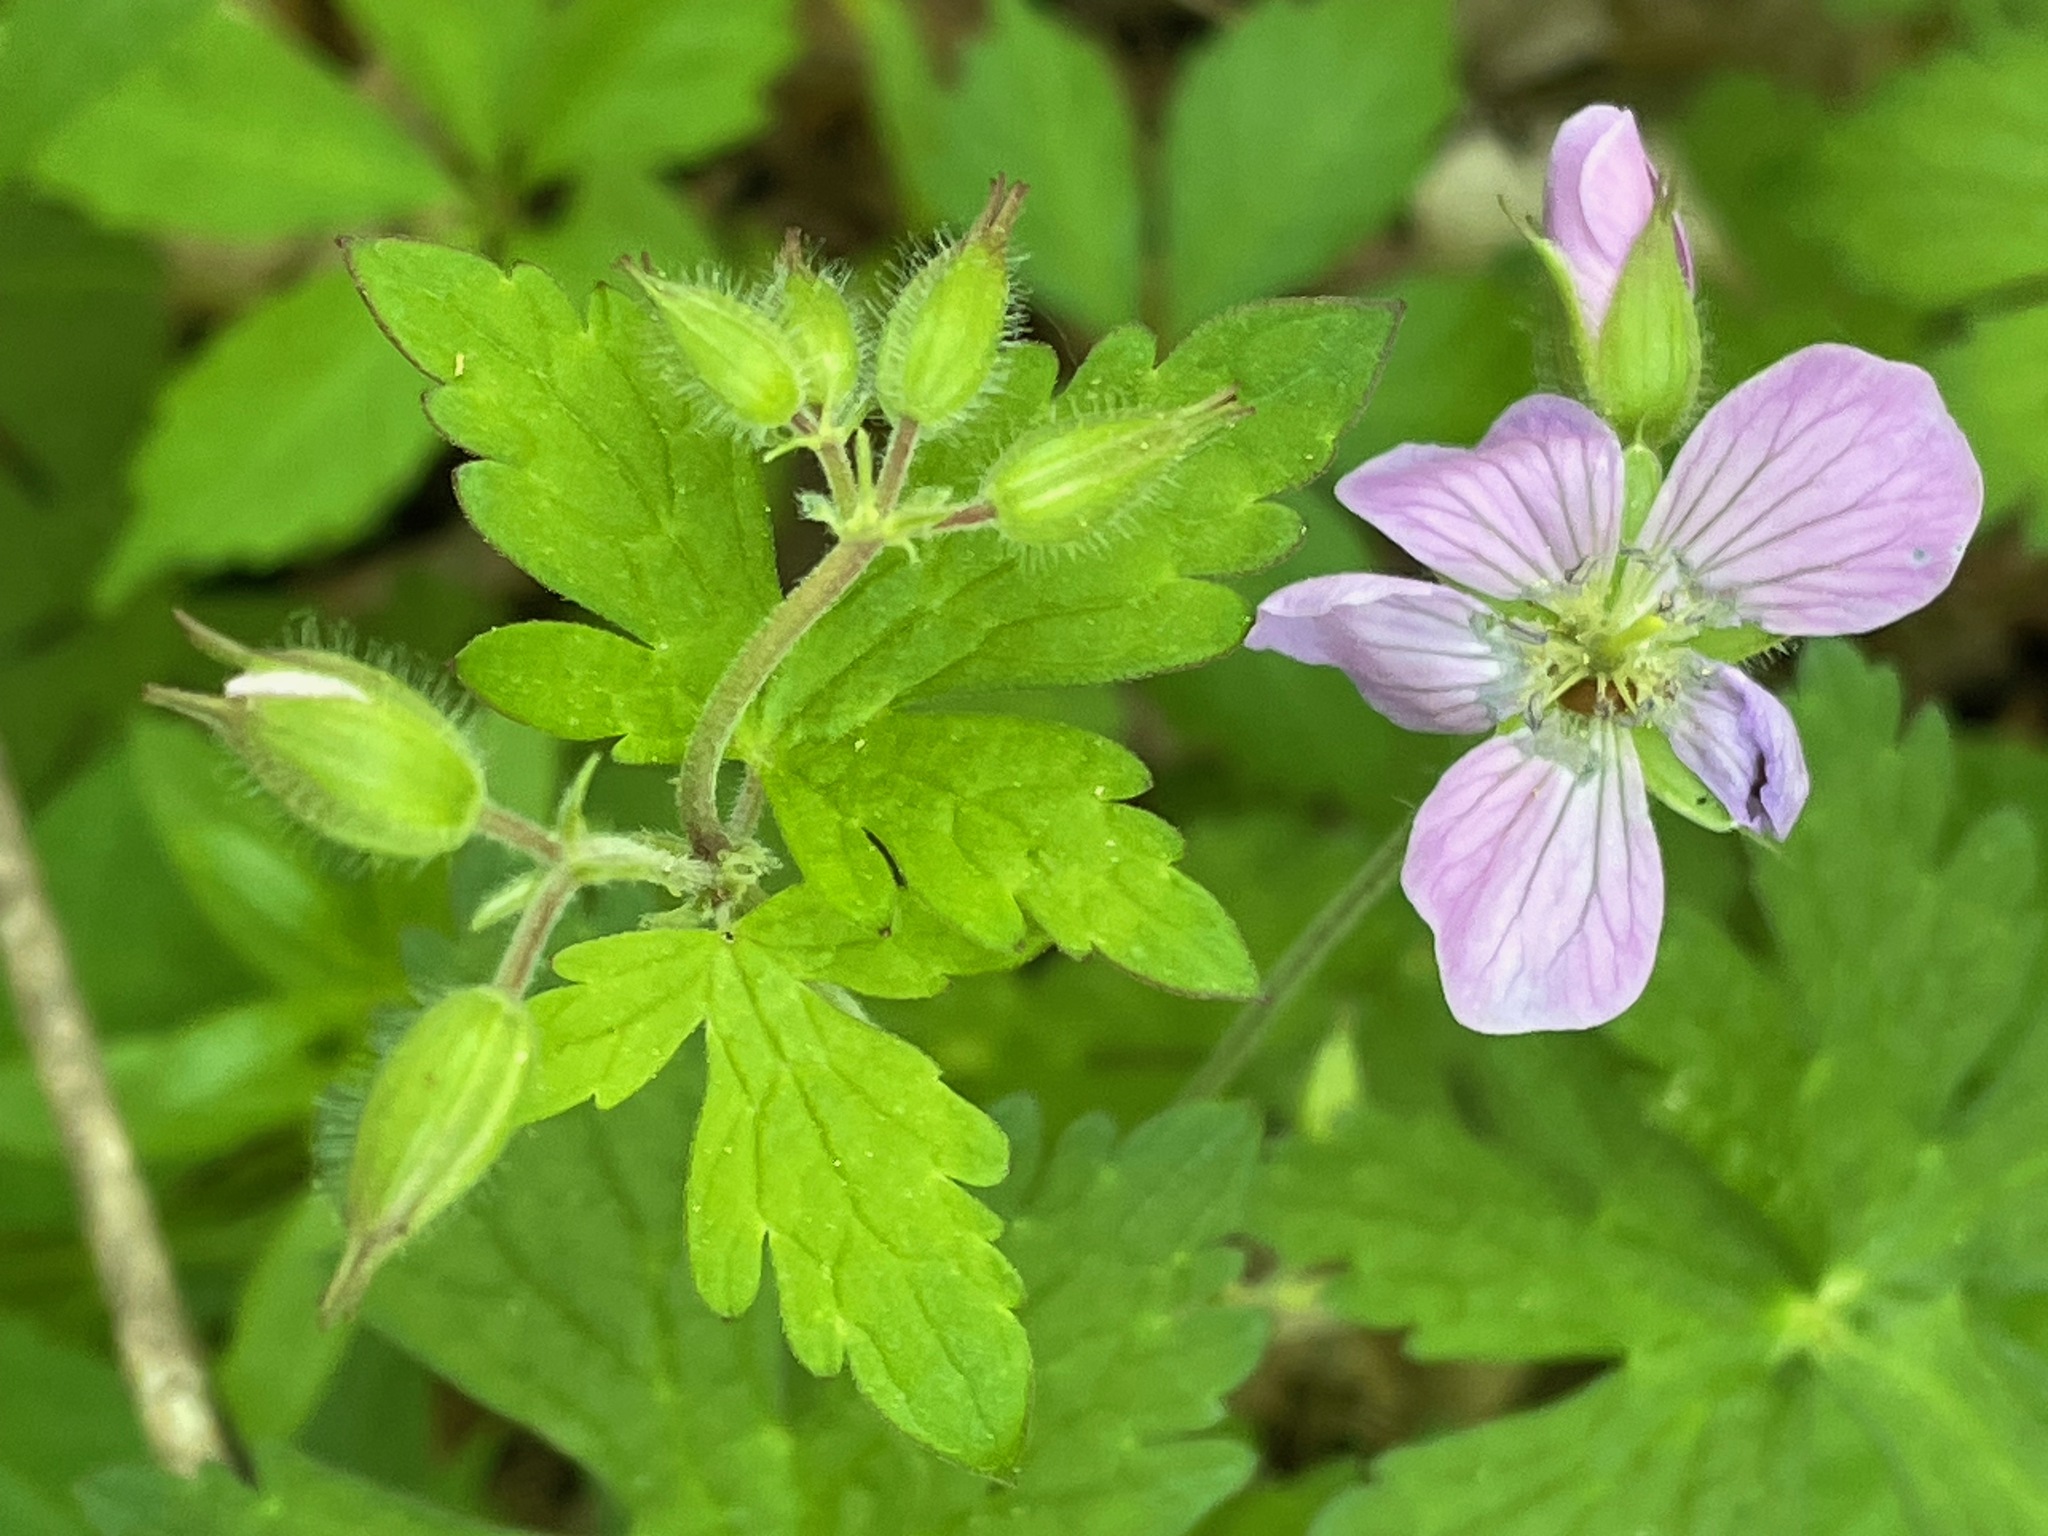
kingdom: Plantae
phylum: Tracheophyta
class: Magnoliopsida
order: Geraniales
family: Geraniaceae
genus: Geranium
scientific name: Geranium maculatum
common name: Spotted geranium
